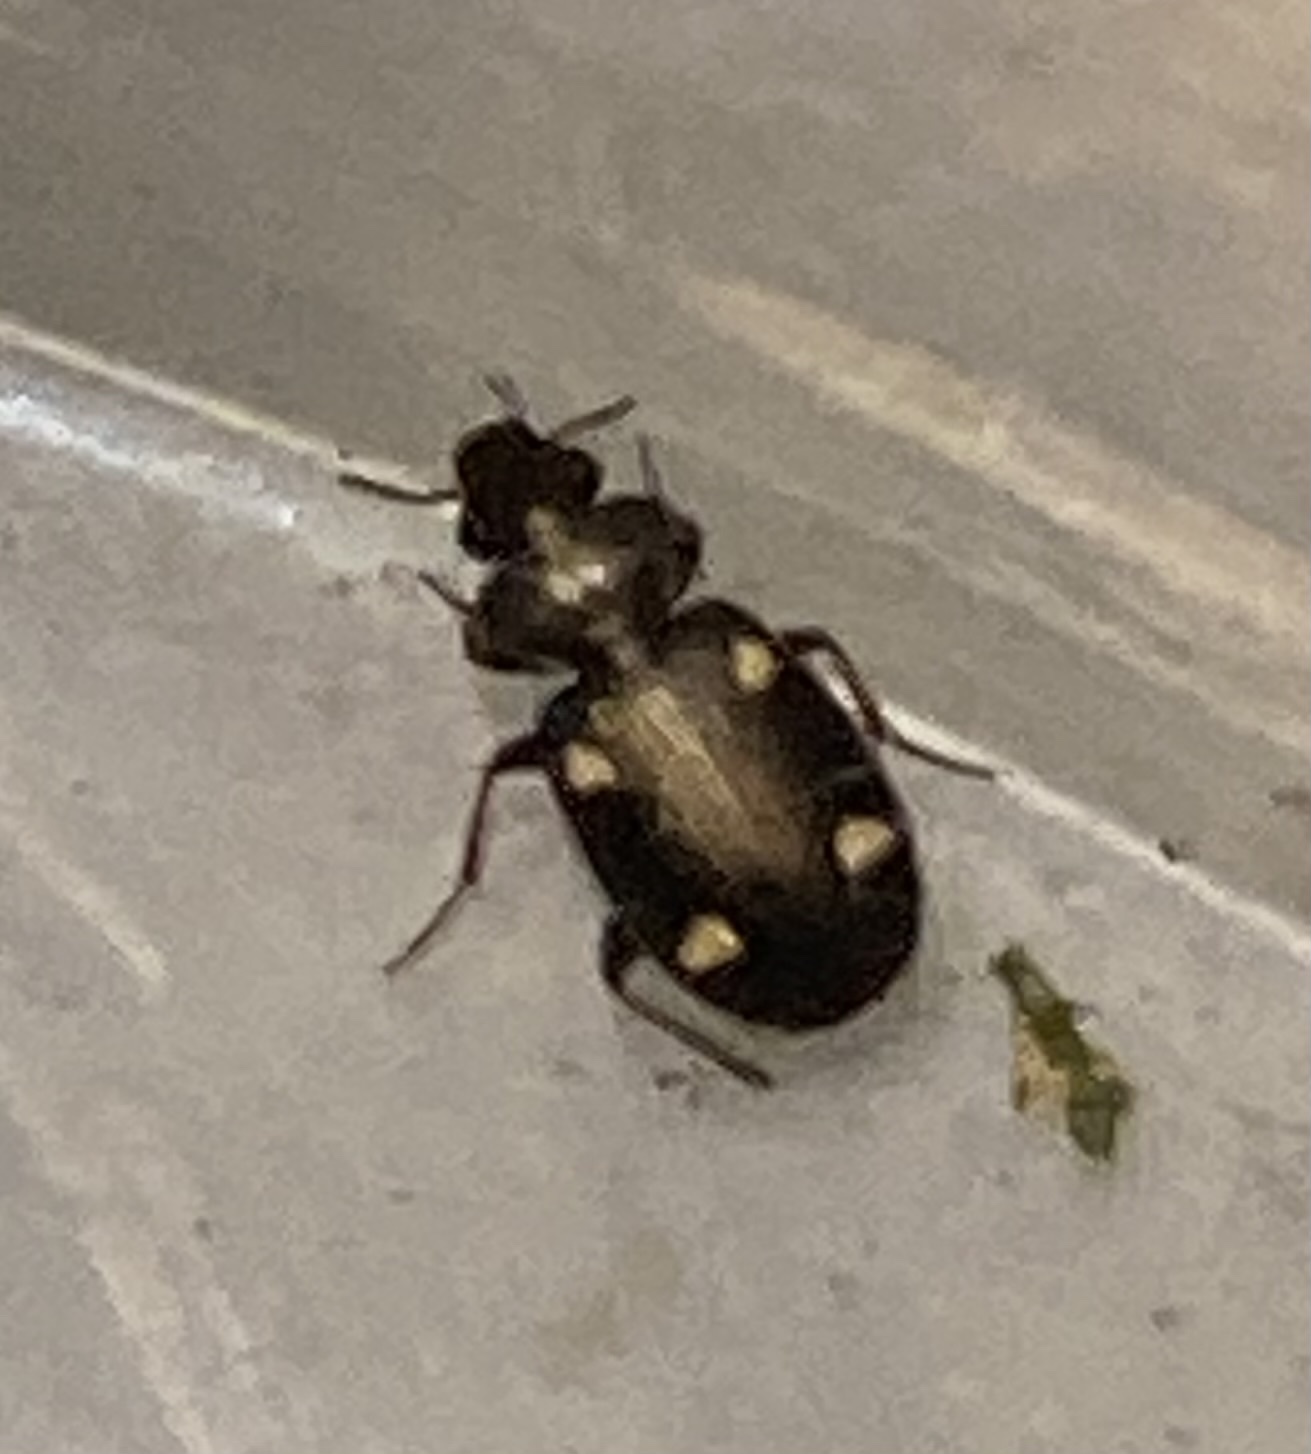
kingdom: Animalia
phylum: Arthropoda
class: Insecta
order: Coleoptera
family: Carabidae
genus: Tetragonoderus
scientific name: Tetragonoderus laevigatus
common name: Ground beetle
